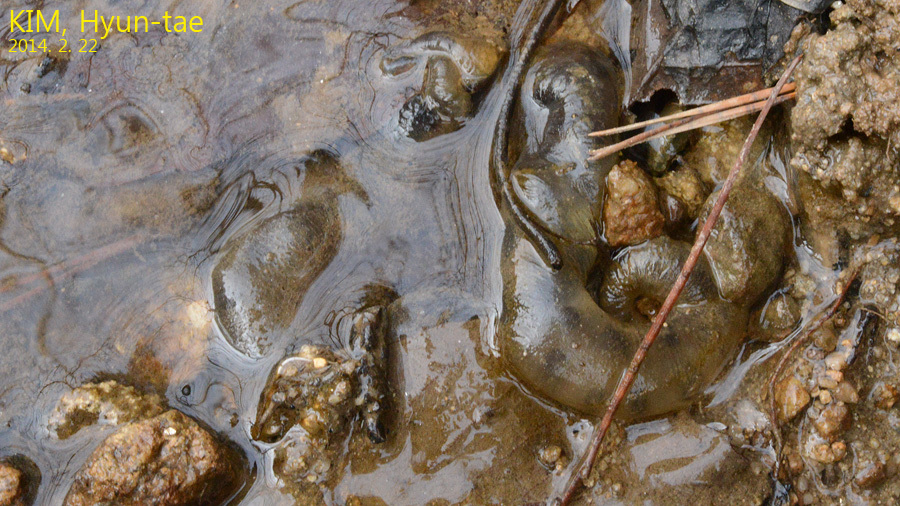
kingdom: Animalia
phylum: Chordata
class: Amphibia
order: Caudata
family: Hynobiidae
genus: Hynobius
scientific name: Hynobius leechii
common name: Gensan salamander
